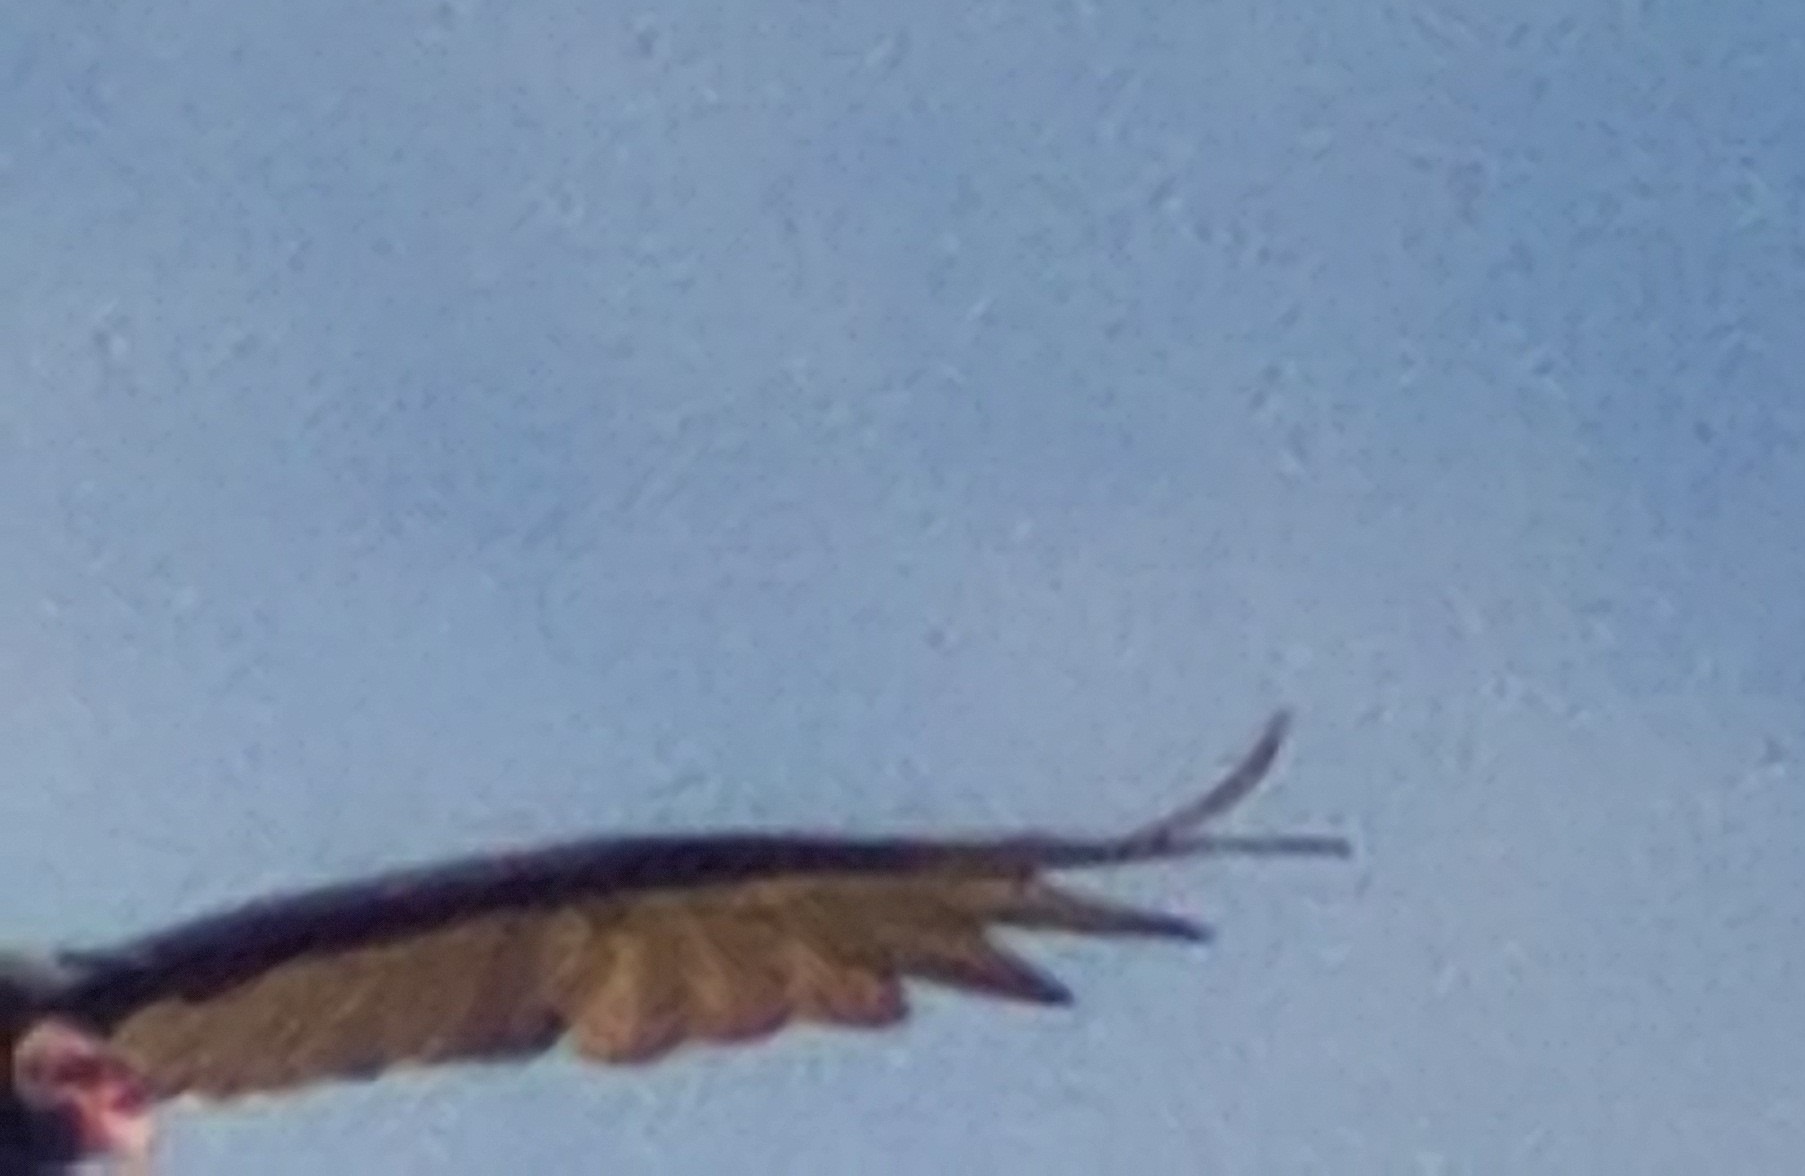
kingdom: Animalia
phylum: Chordata
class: Aves
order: Accipitriformes
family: Cathartidae
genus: Cathartes
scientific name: Cathartes aura
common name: Turkey vulture
